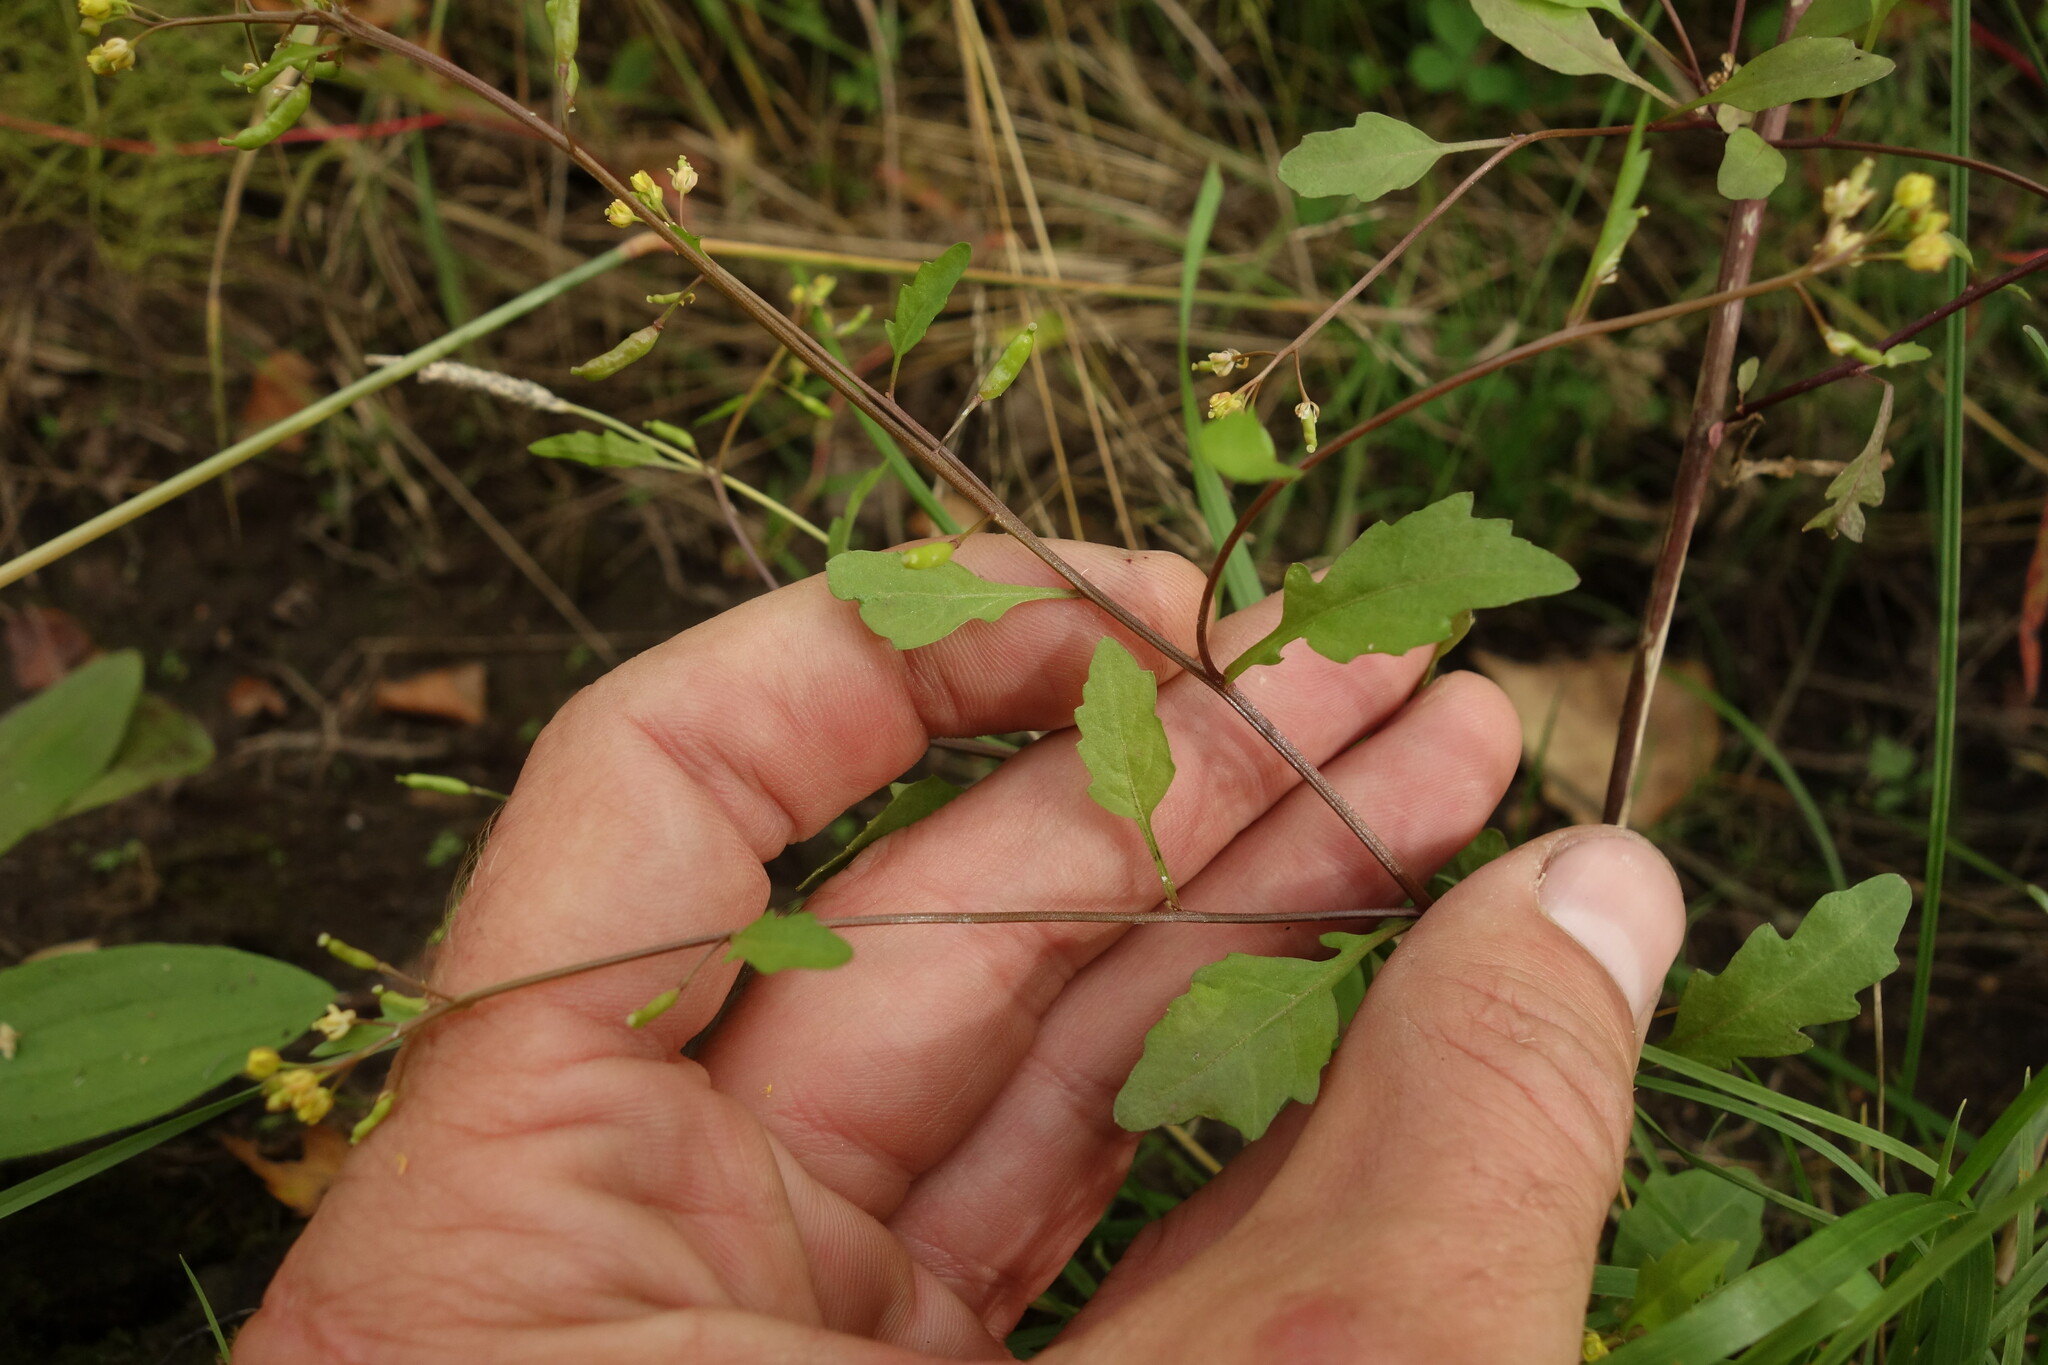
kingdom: Plantae
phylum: Tracheophyta
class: Magnoliopsida
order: Brassicales
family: Brassicaceae
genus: Rorippa
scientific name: Rorippa palustris
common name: Marsh yellow-cress
